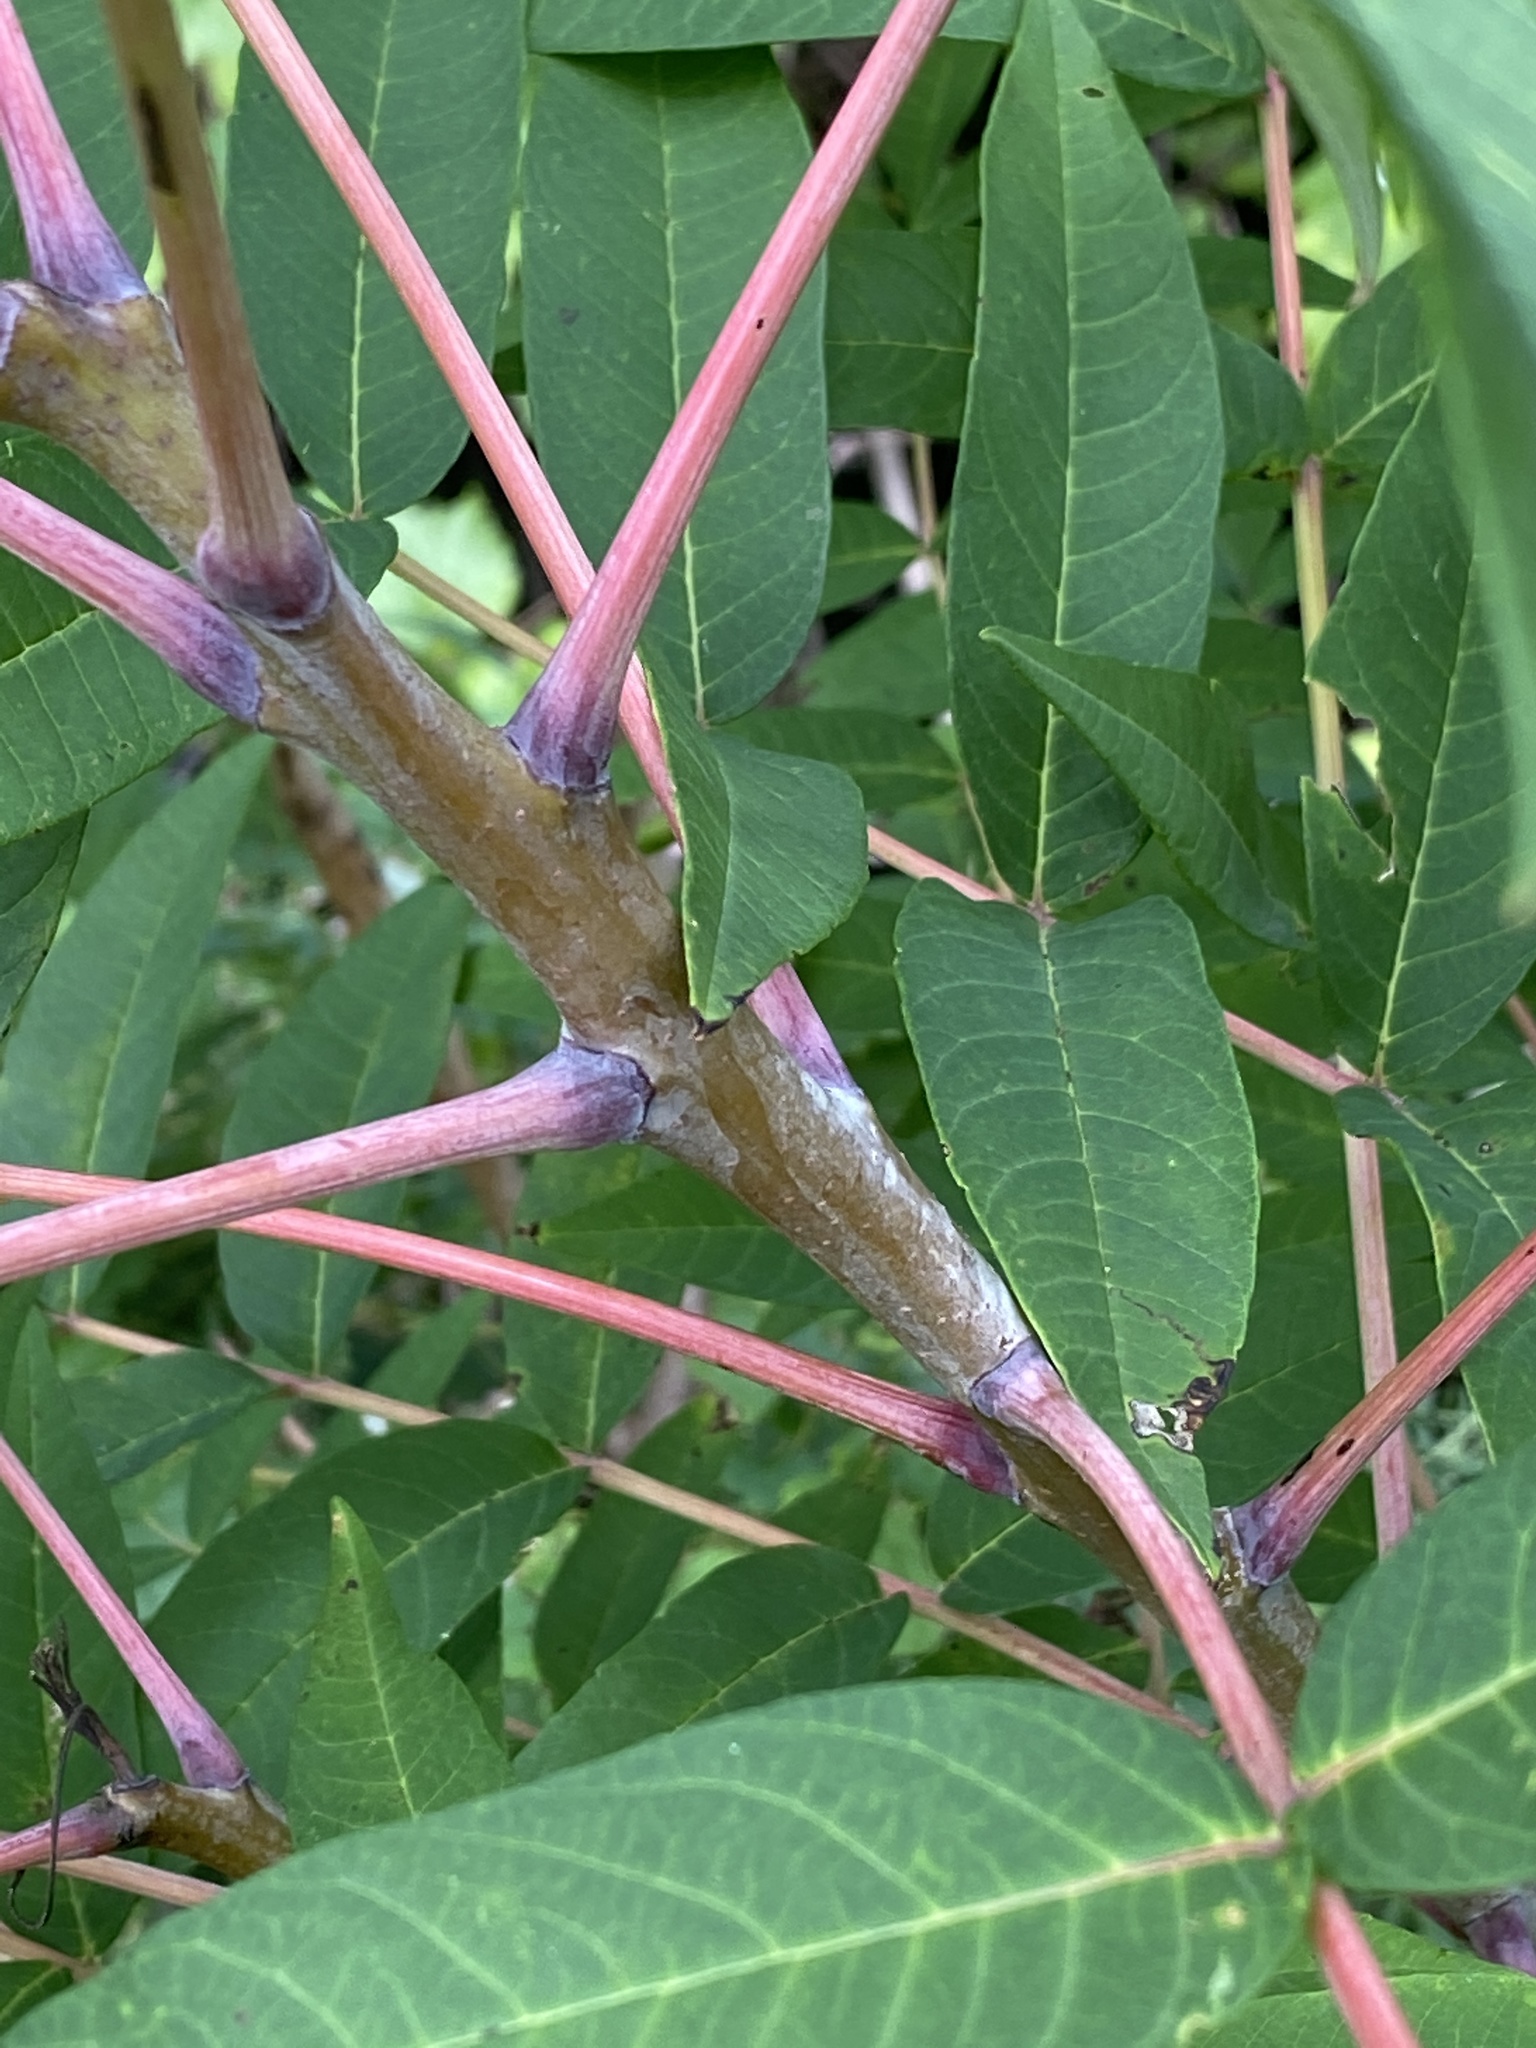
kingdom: Plantae
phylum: Tracheophyta
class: Magnoliopsida
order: Sapindales
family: Anacardiaceae
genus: Rhus
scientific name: Rhus glabra
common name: Scarlet sumac
